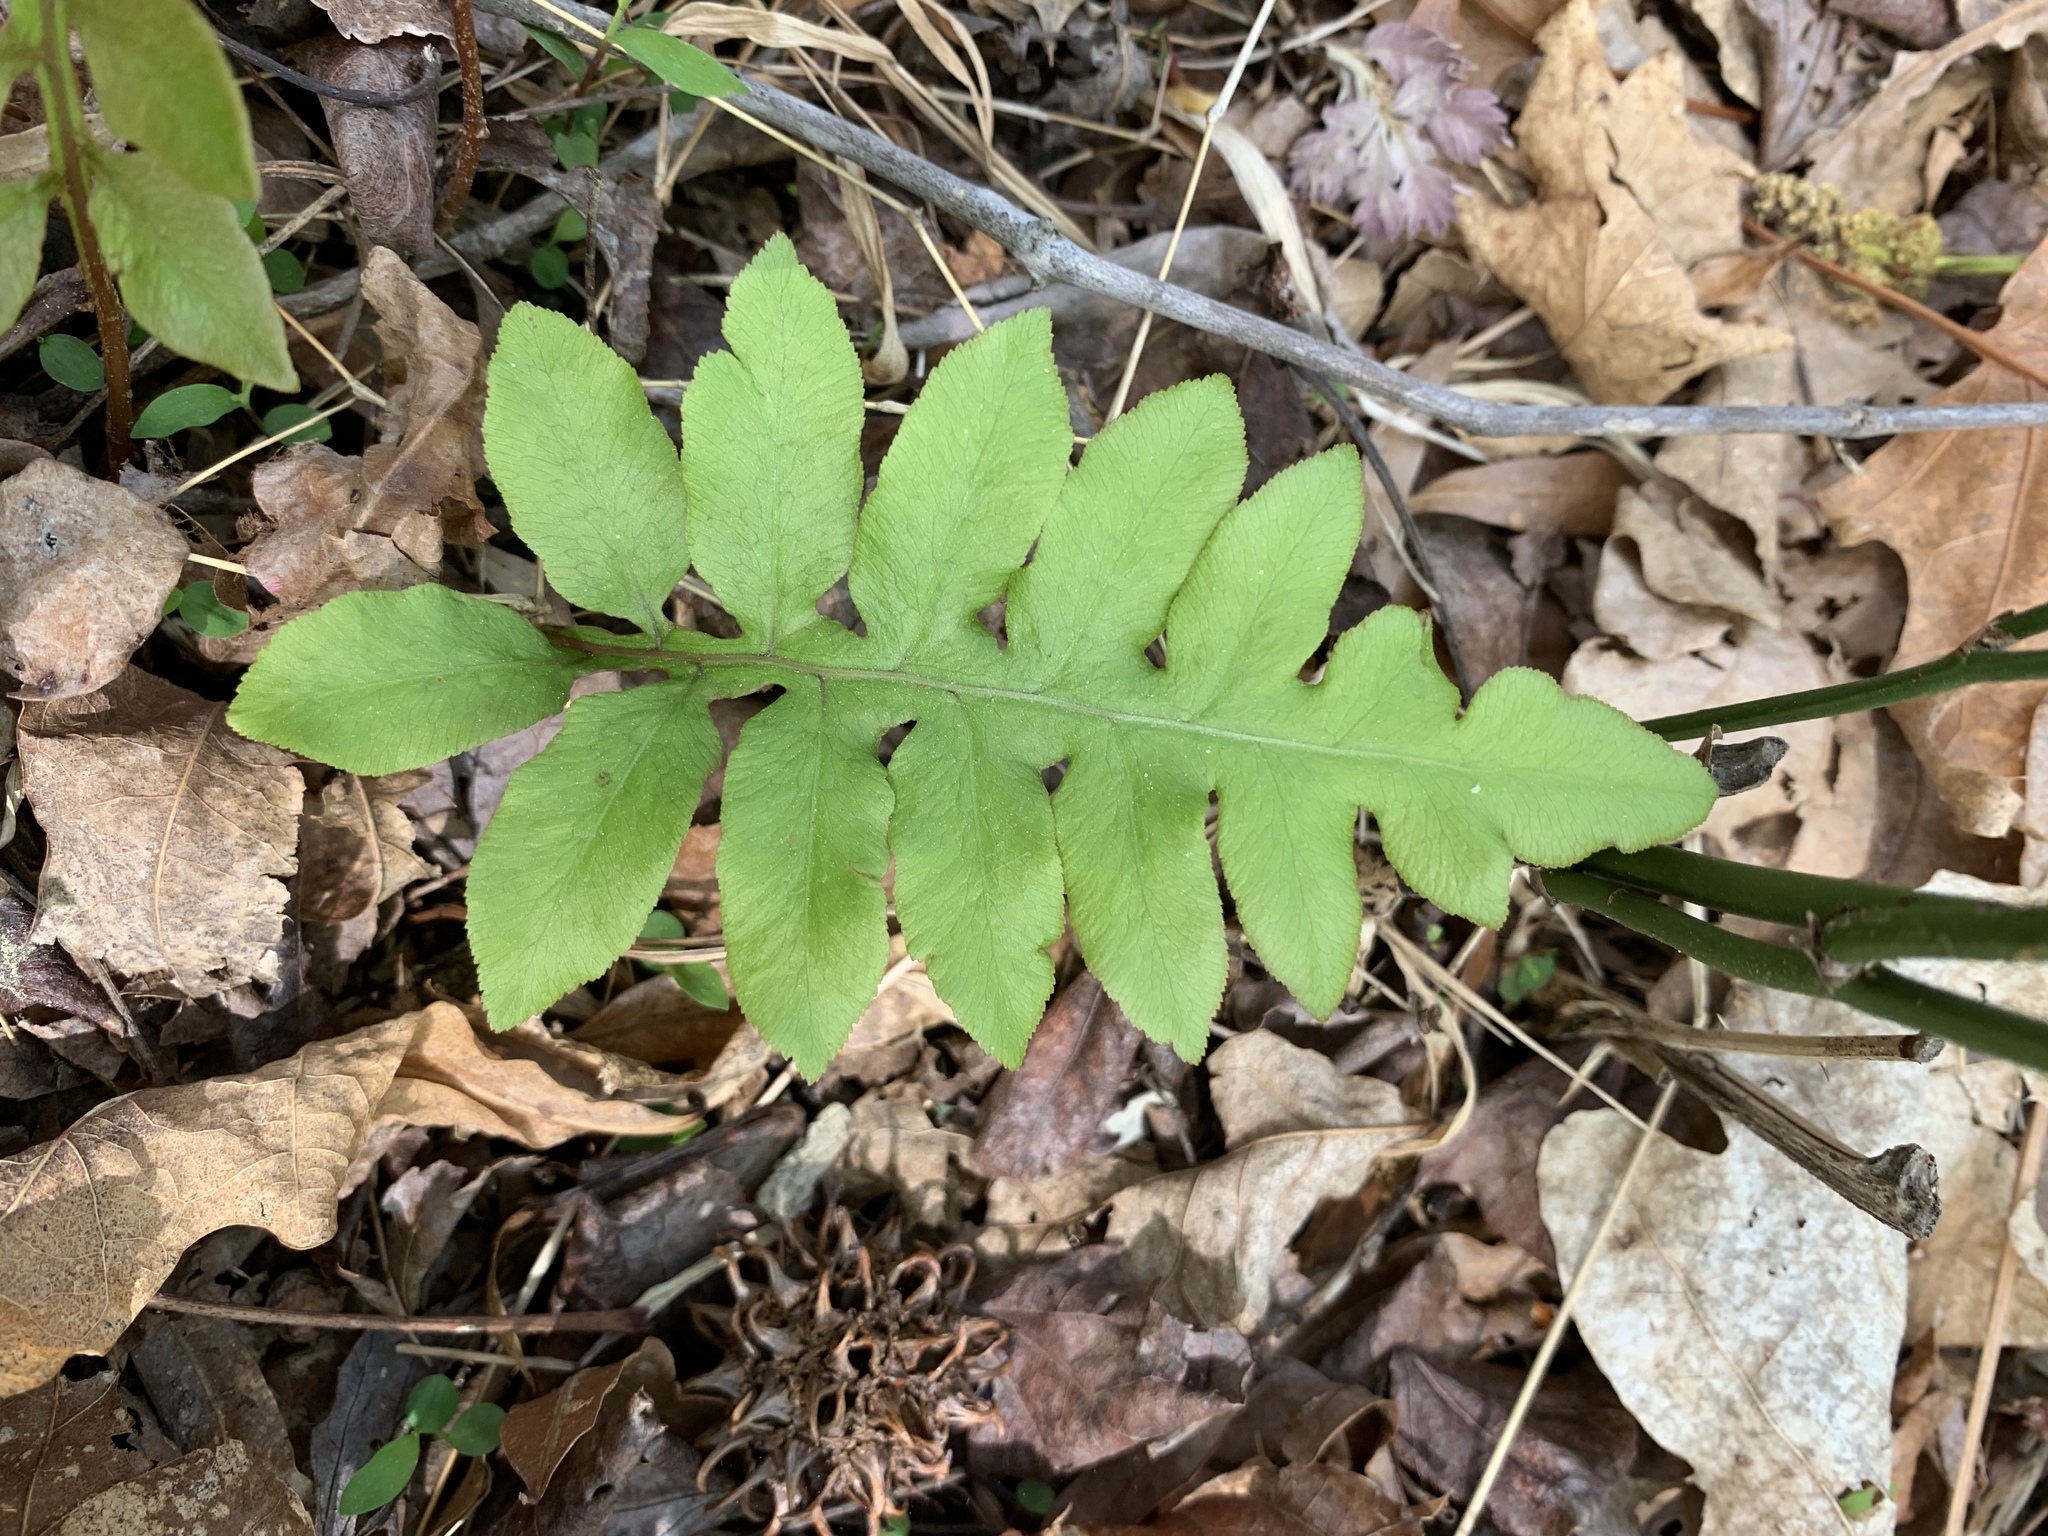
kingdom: Plantae
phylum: Tracheophyta
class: Polypodiopsida
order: Polypodiales
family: Blechnaceae
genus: Lorinseria
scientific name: Lorinseria areolata
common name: Dwarf chain fern
